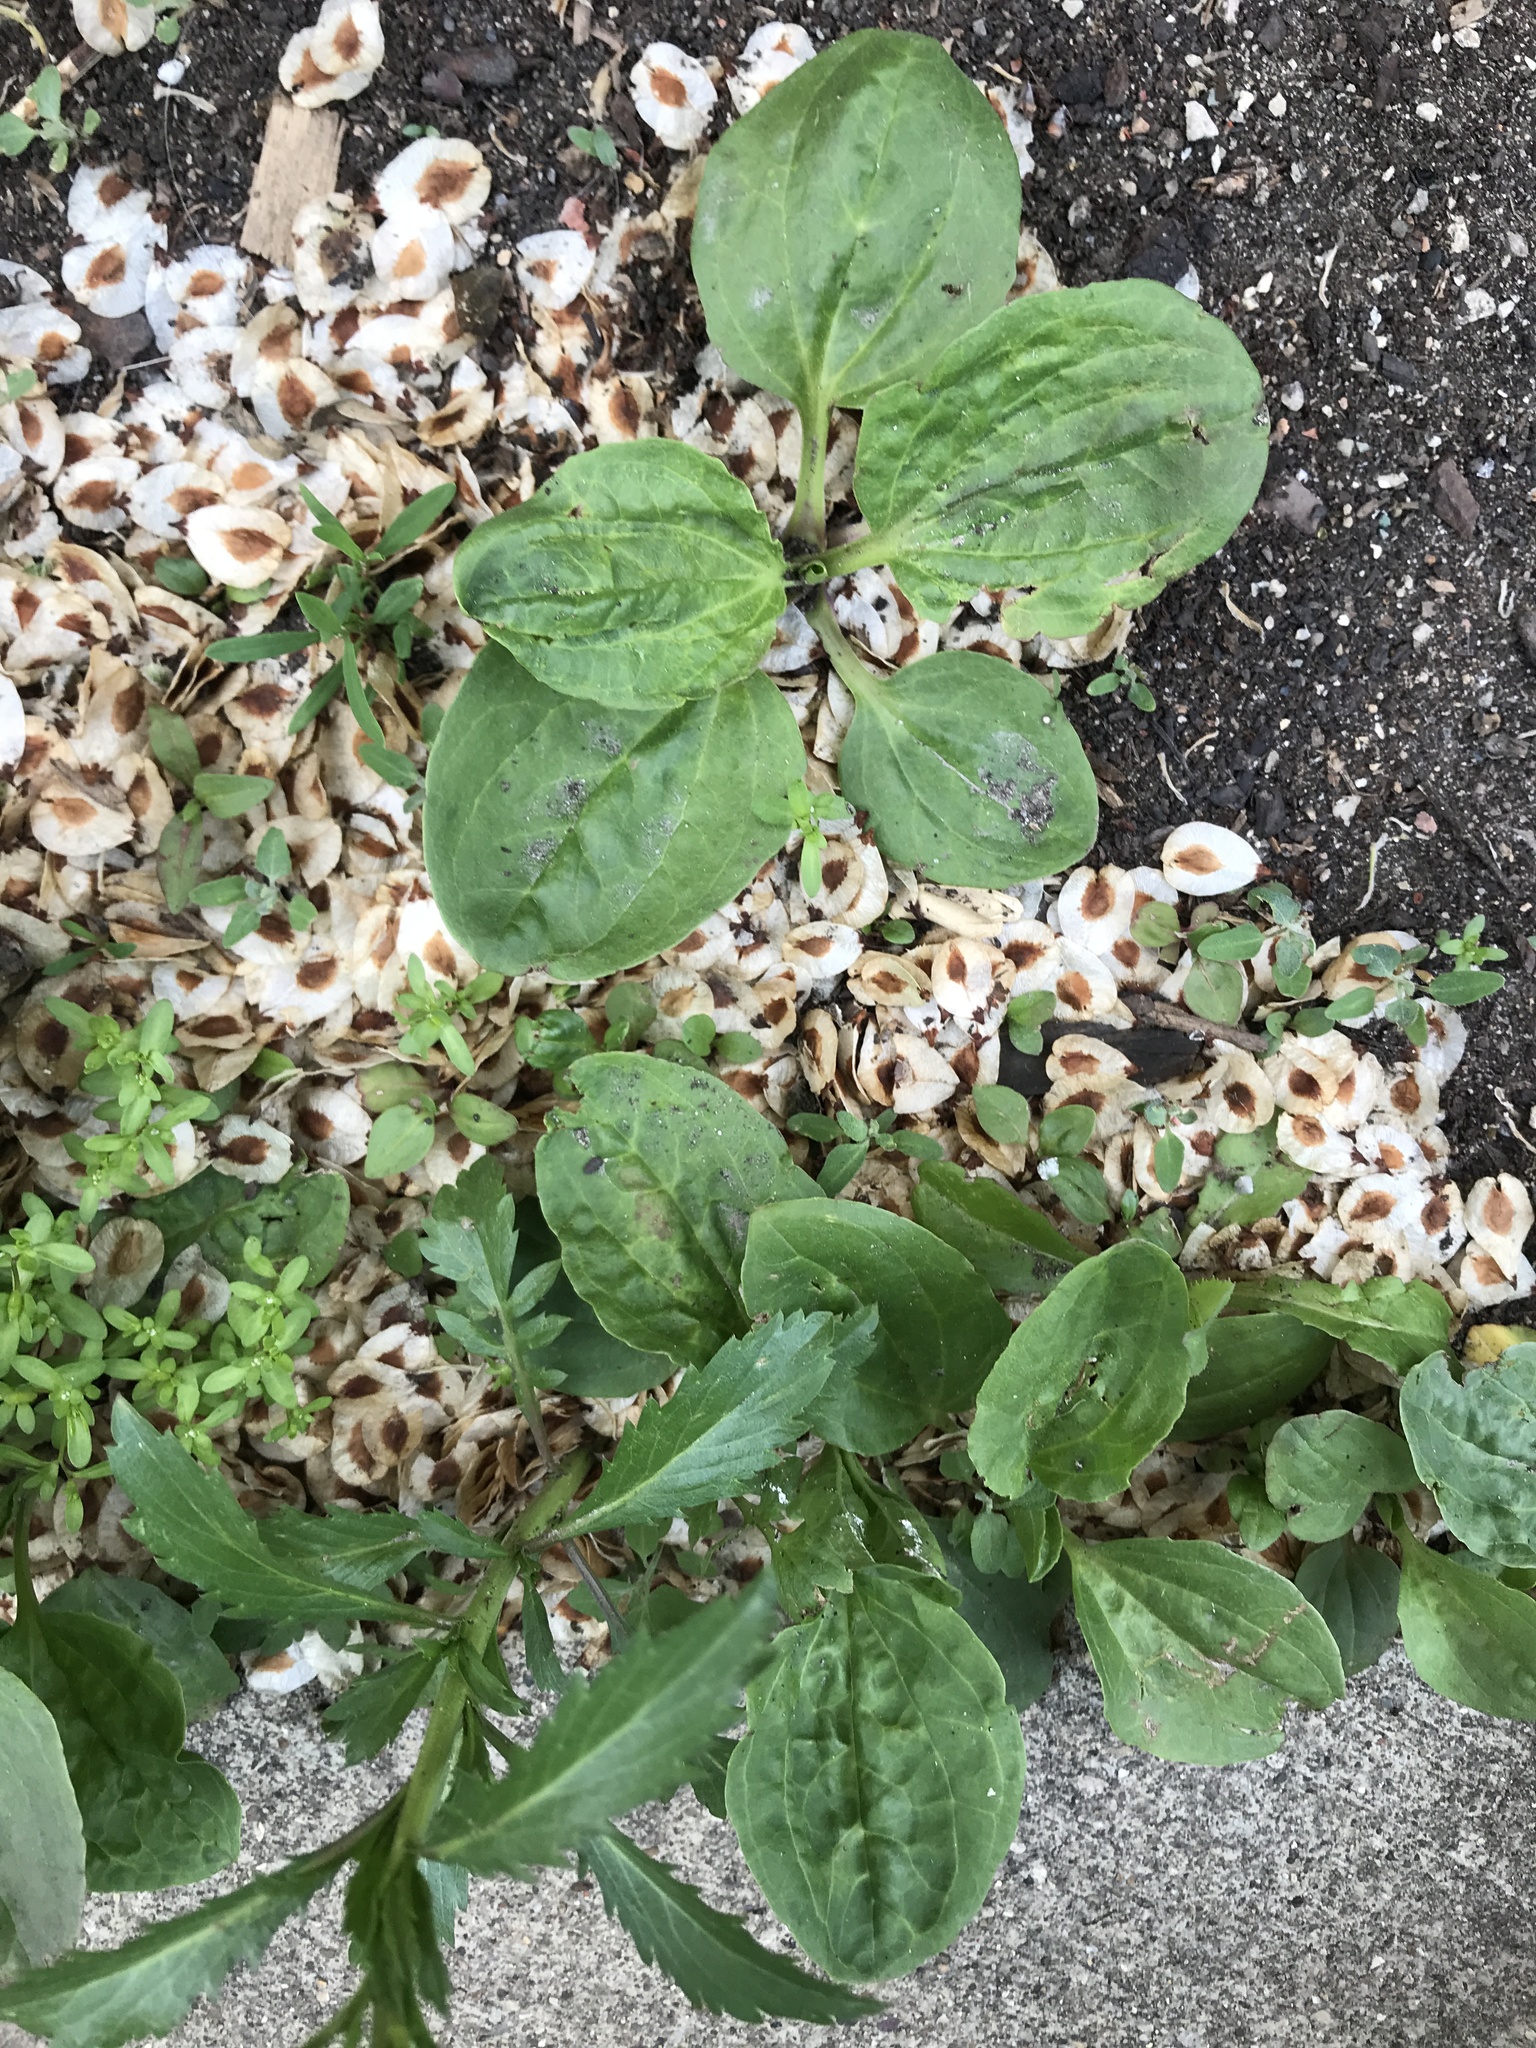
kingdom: Plantae
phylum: Tracheophyta
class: Magnoliopsida
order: Lamiales
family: Plantaginaceae
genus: Plantago
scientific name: Plantago major
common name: Common plantain
